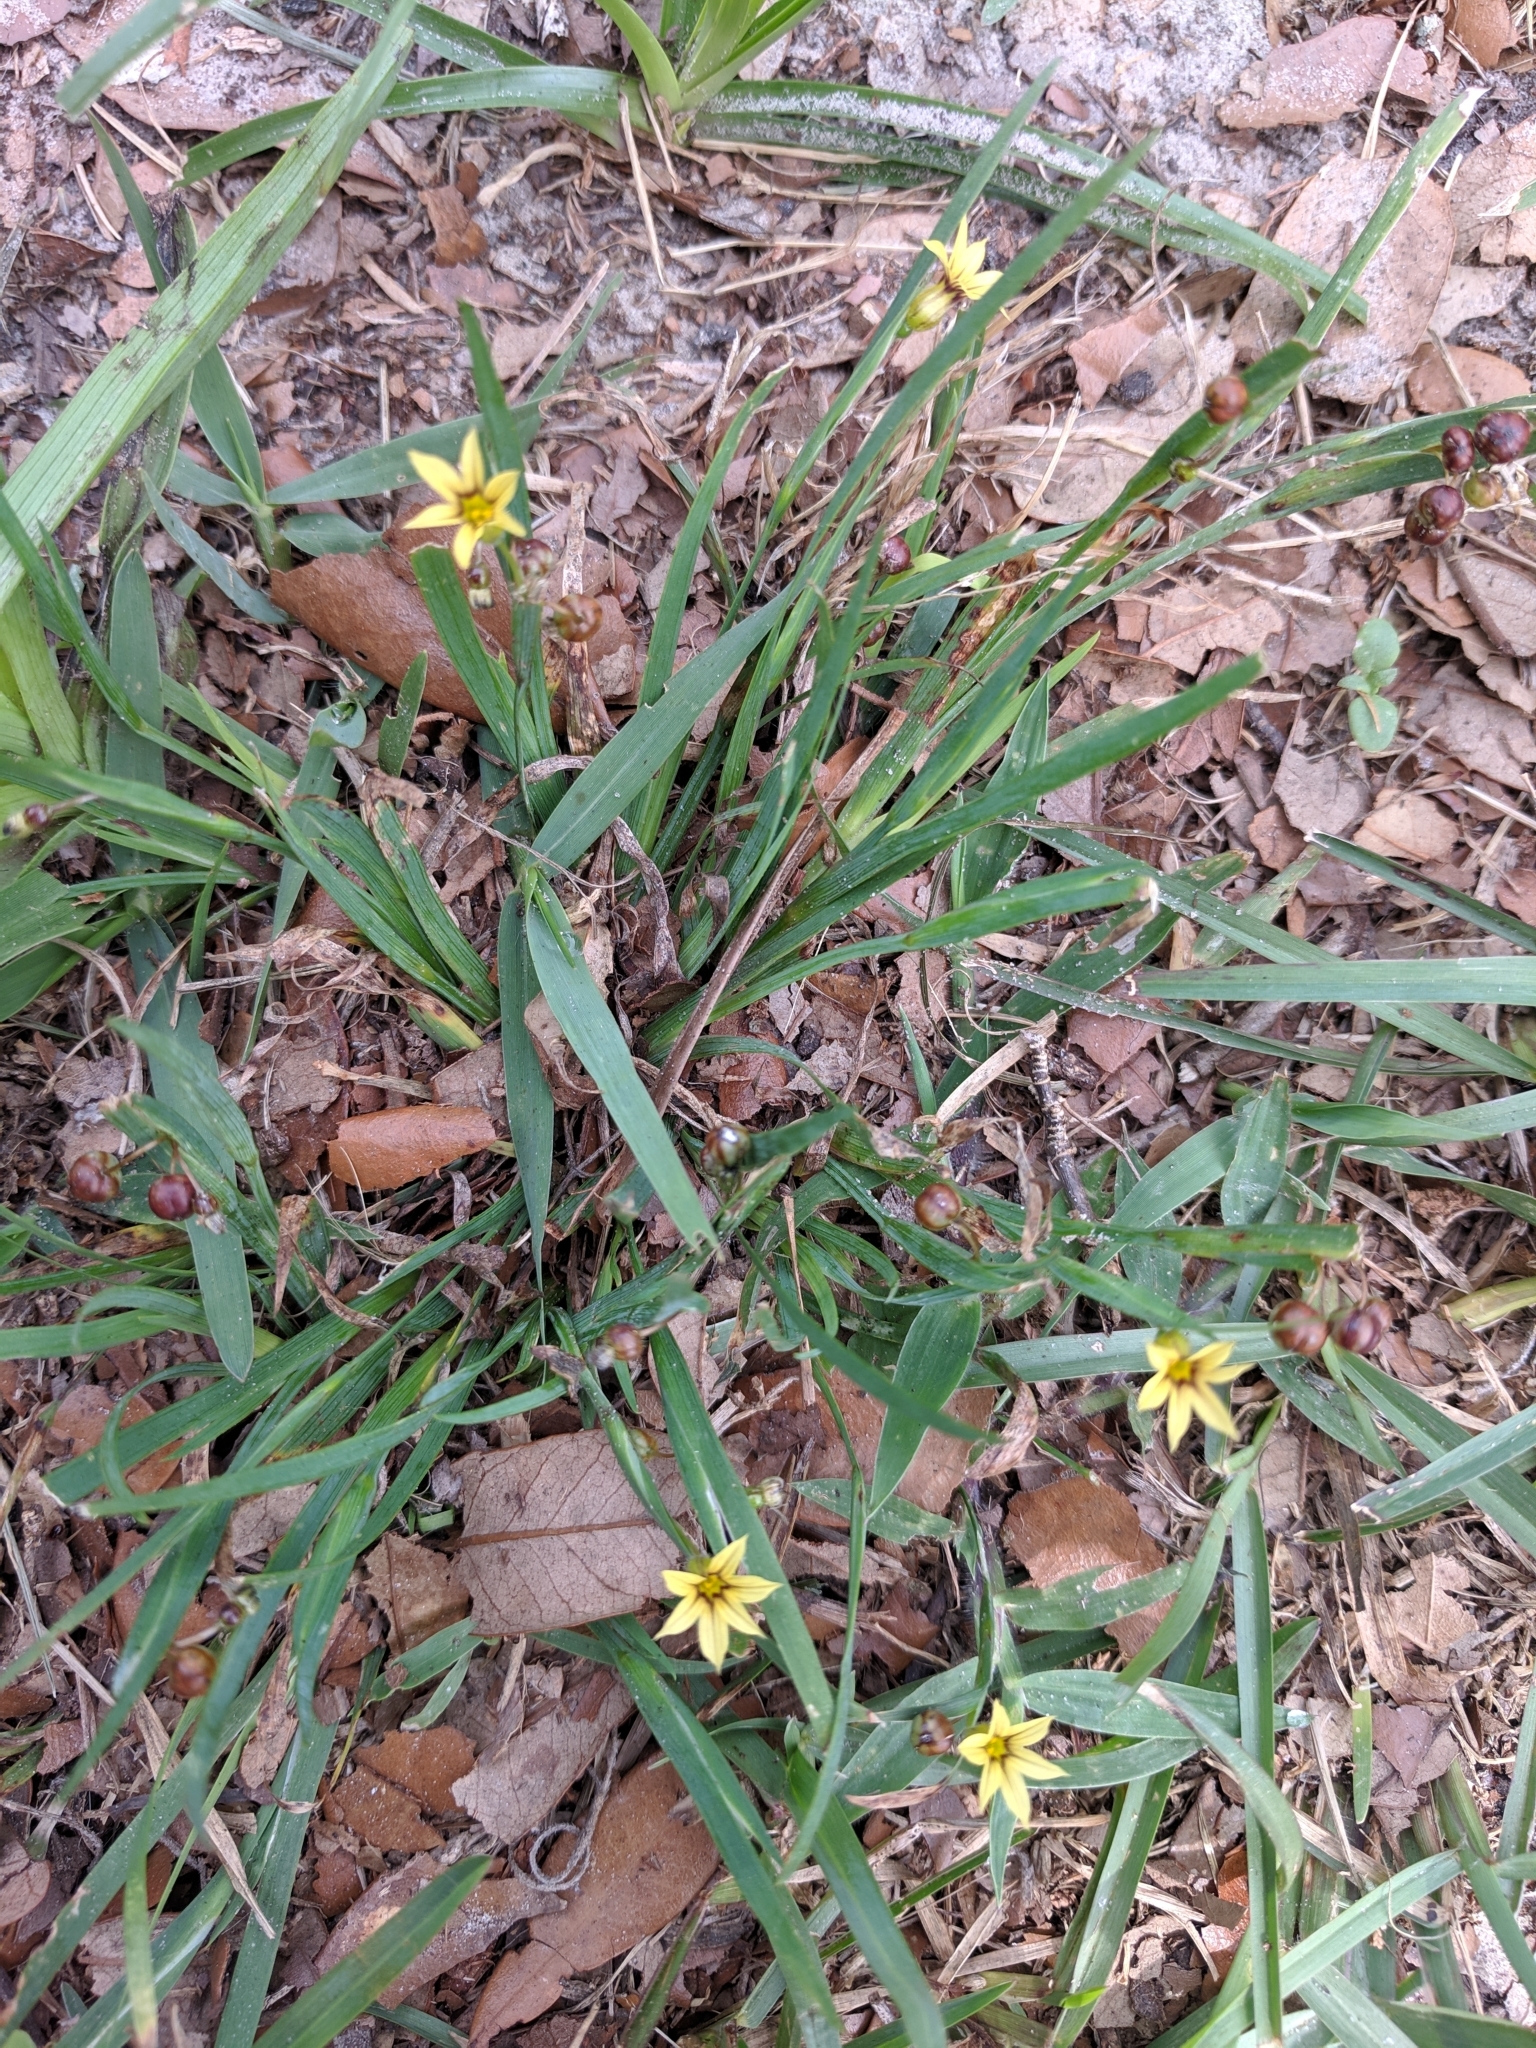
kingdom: Plantae
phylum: Tracheophyta
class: Liliopsida
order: Asparagales
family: Iridaceae
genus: Sisyrinchium
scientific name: Sisyrinchium micranthum
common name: Bermuda pigroot
